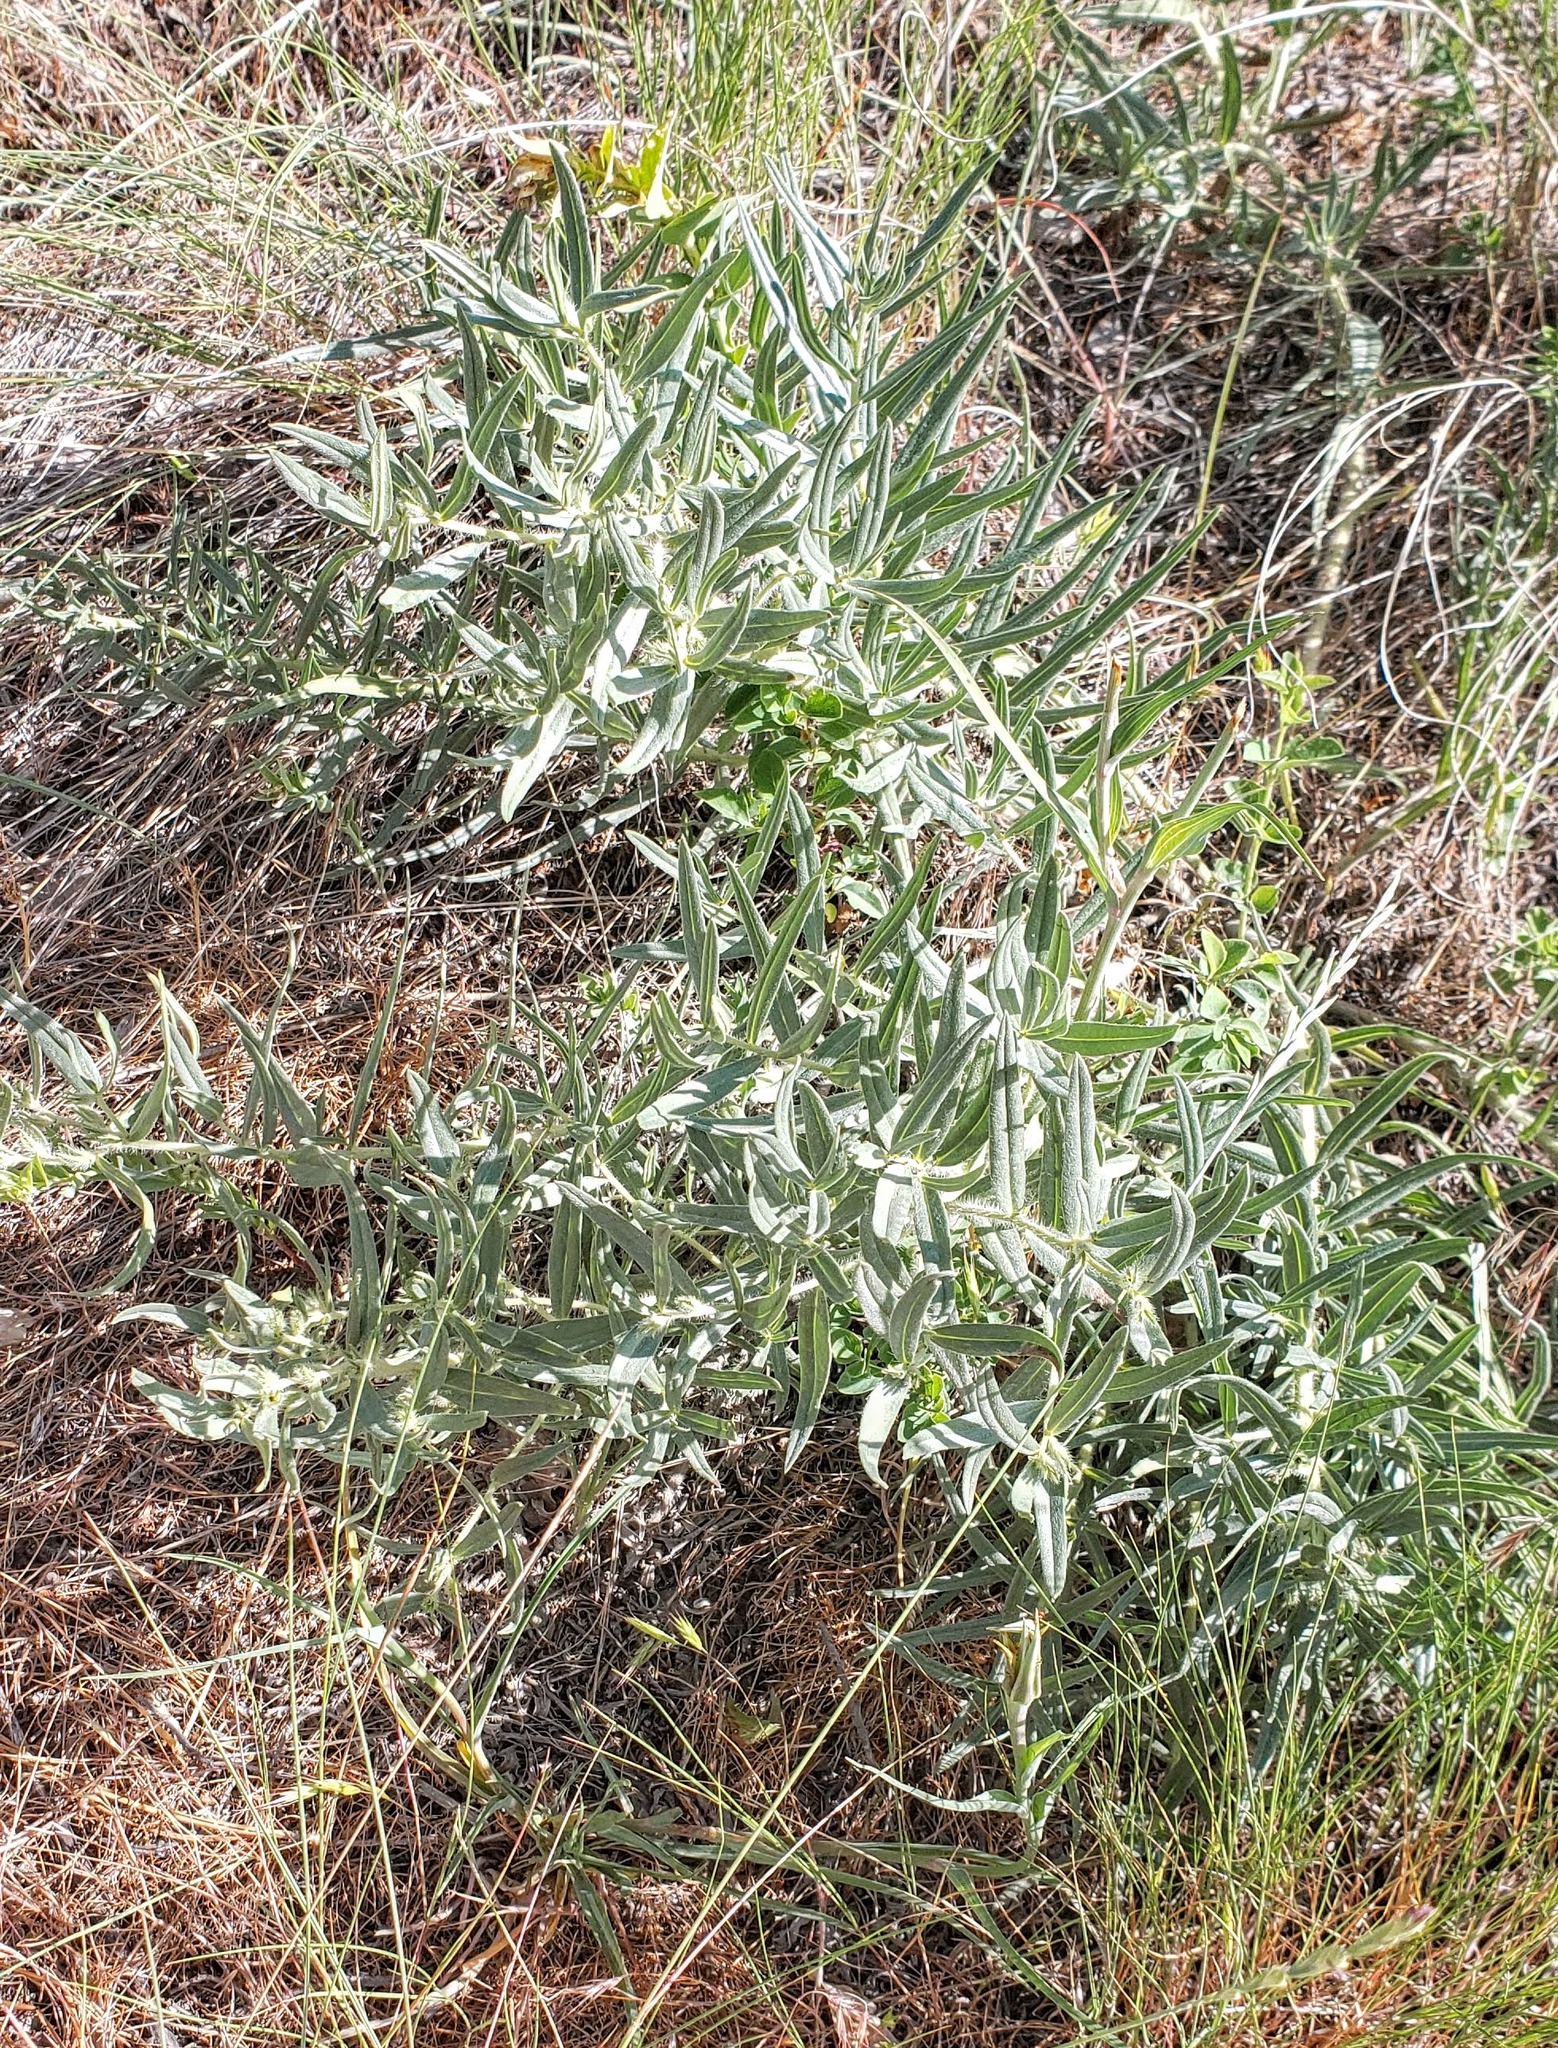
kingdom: Plantae
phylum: Tracheophyta
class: Magnoliopsida
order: Boraginales
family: Boraginaceae
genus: Lithospermum
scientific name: Lithospermum ruderale
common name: Western gromwell
